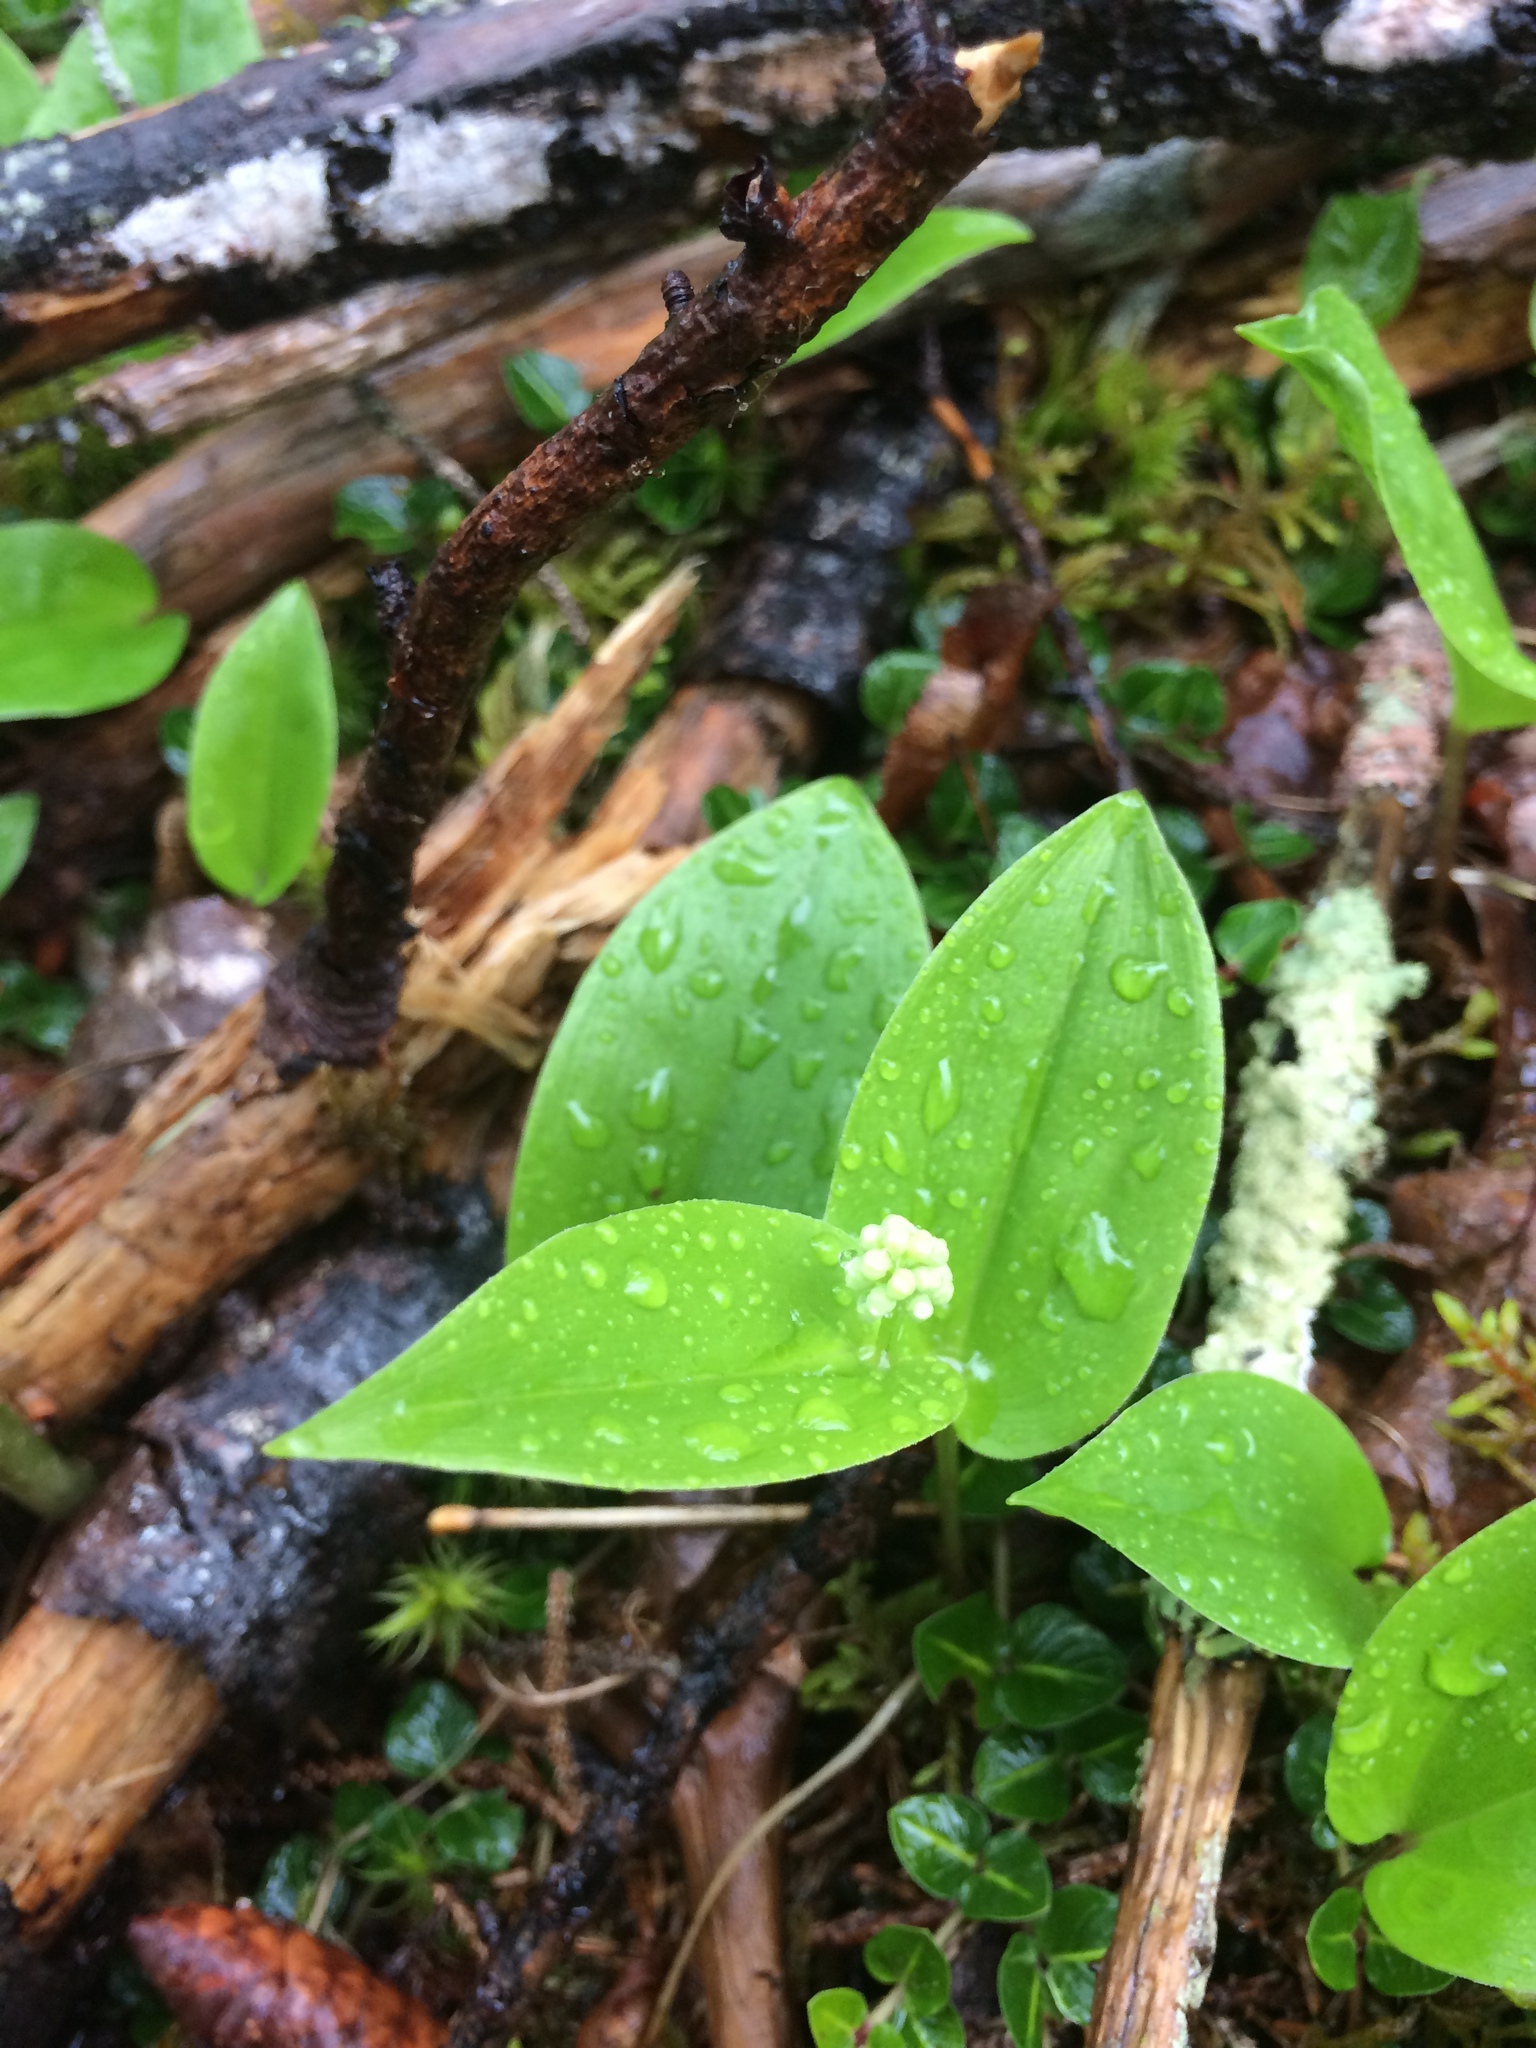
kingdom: Plantae
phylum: Tracheophyta
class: Liliopsida
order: Asparagales
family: Asparagaceae
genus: Maianthemum
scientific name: Maianthemum canadense
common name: False lily-of-the-valley
